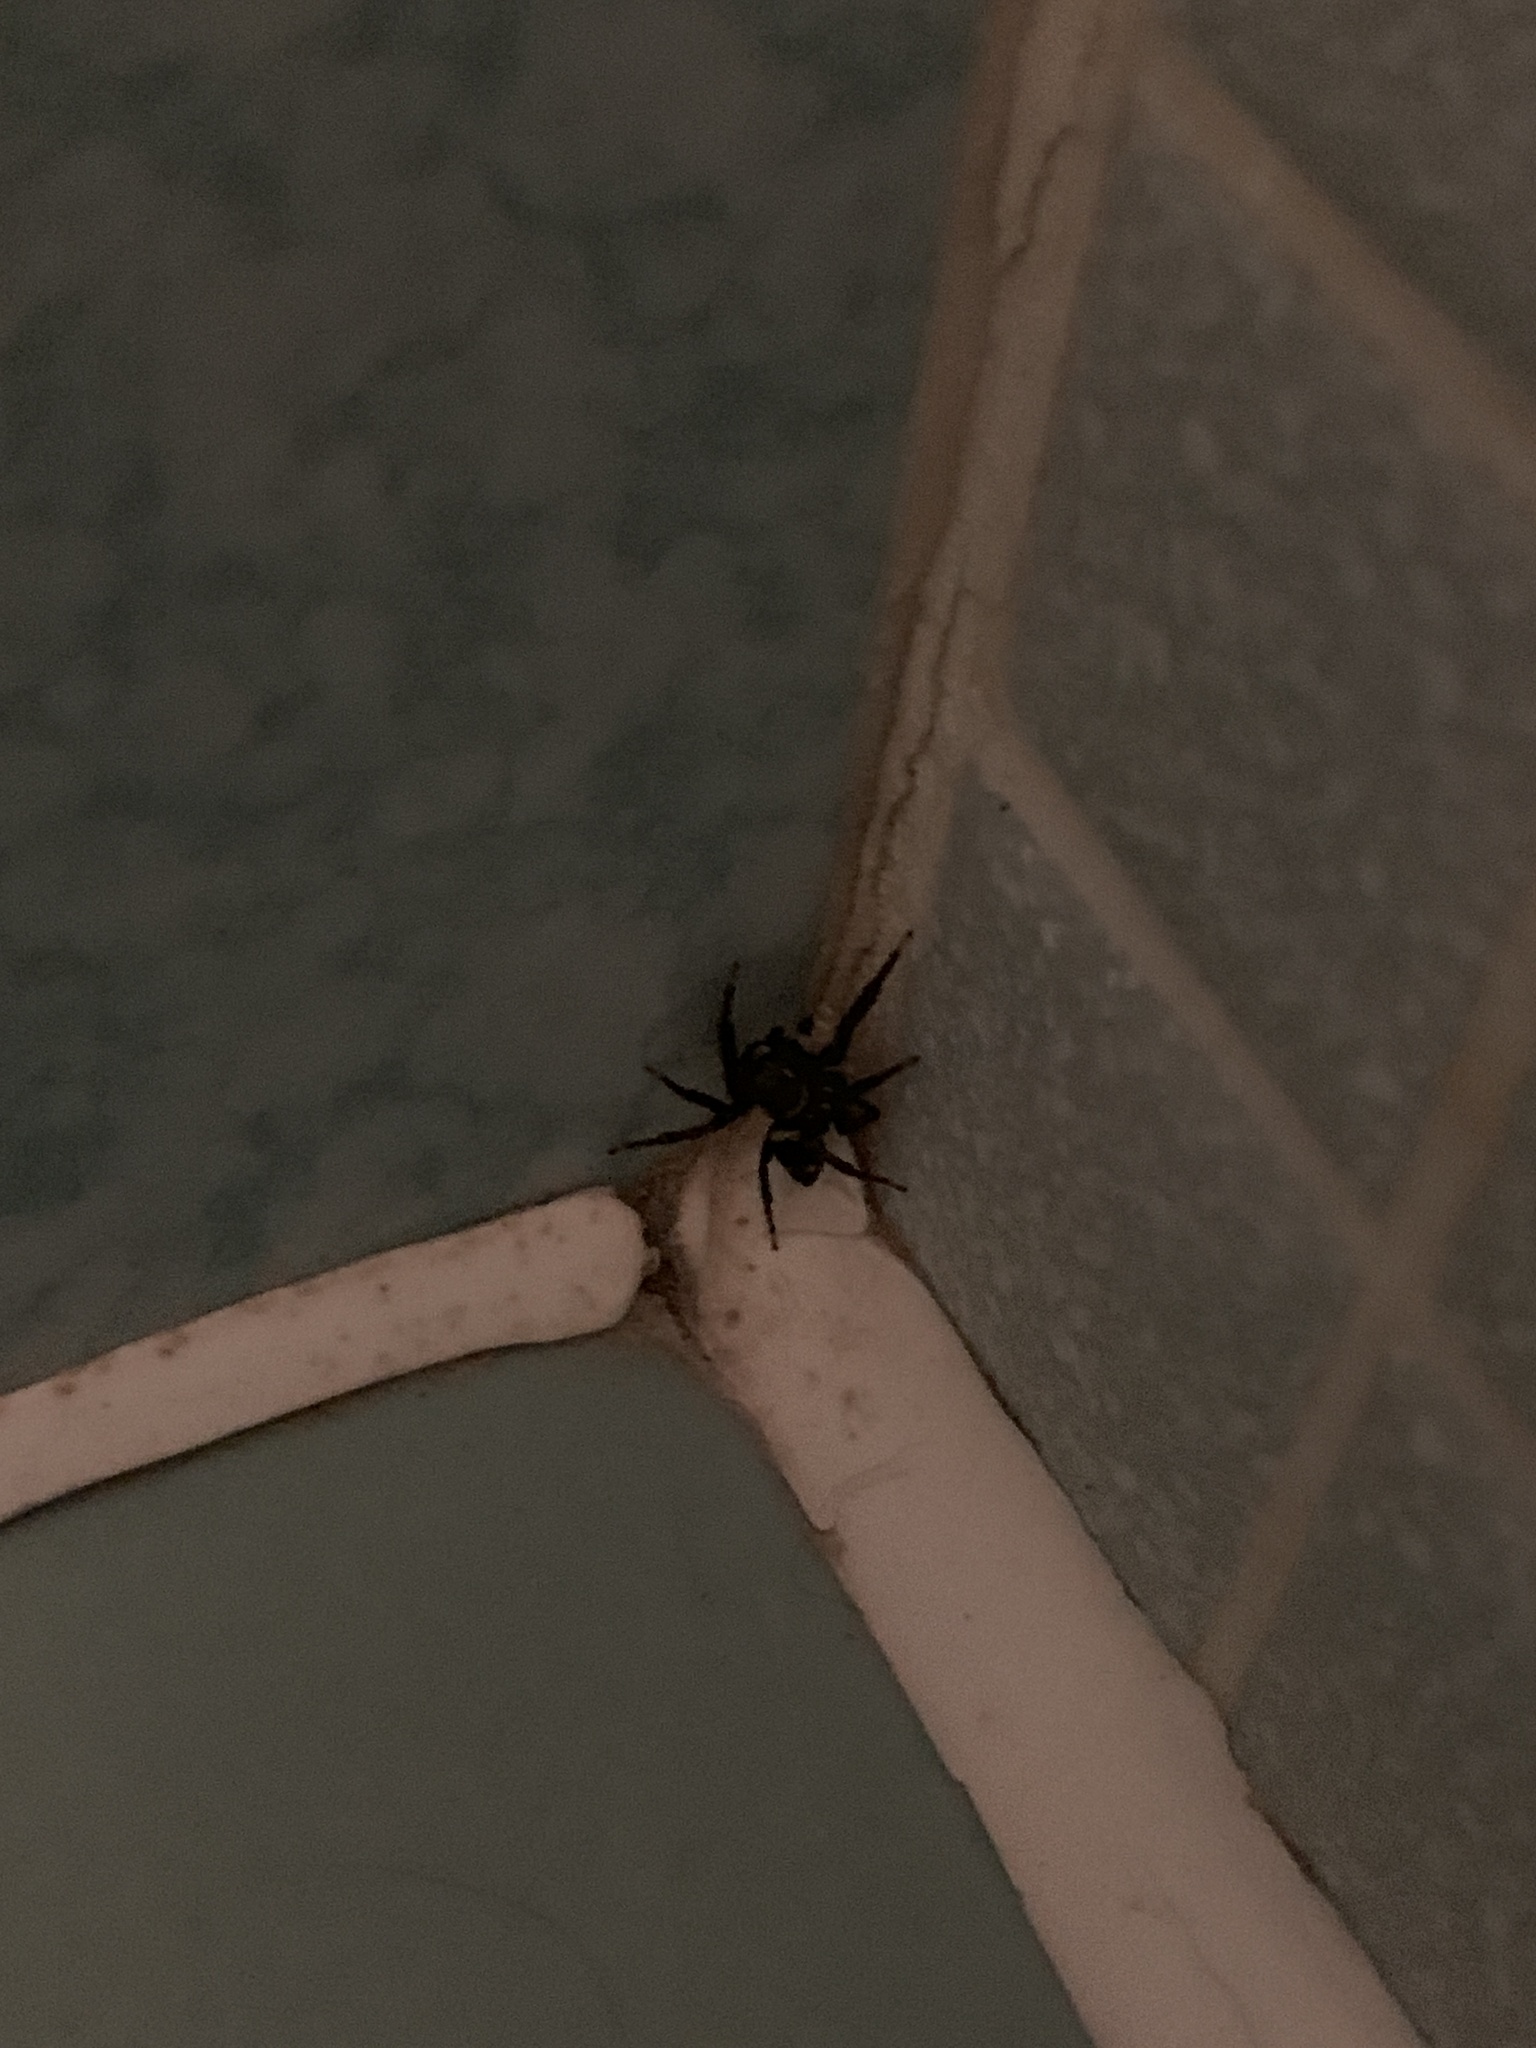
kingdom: Animalia
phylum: Arthropoda
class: Arachnida
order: Araneae
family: Salticidae
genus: Hasarius
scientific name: Hasarius adansoni
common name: Jumping spider
